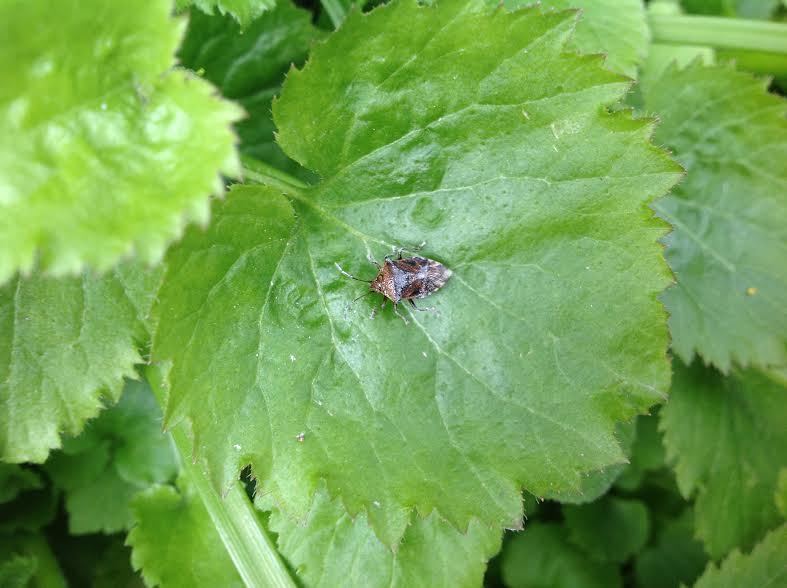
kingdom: Animalia
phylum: Arthropoda
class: Insecta
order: Hemiptera
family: Acanthosomatidae
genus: Elasmucha
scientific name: Elasmucha grisea
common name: Parent bug
